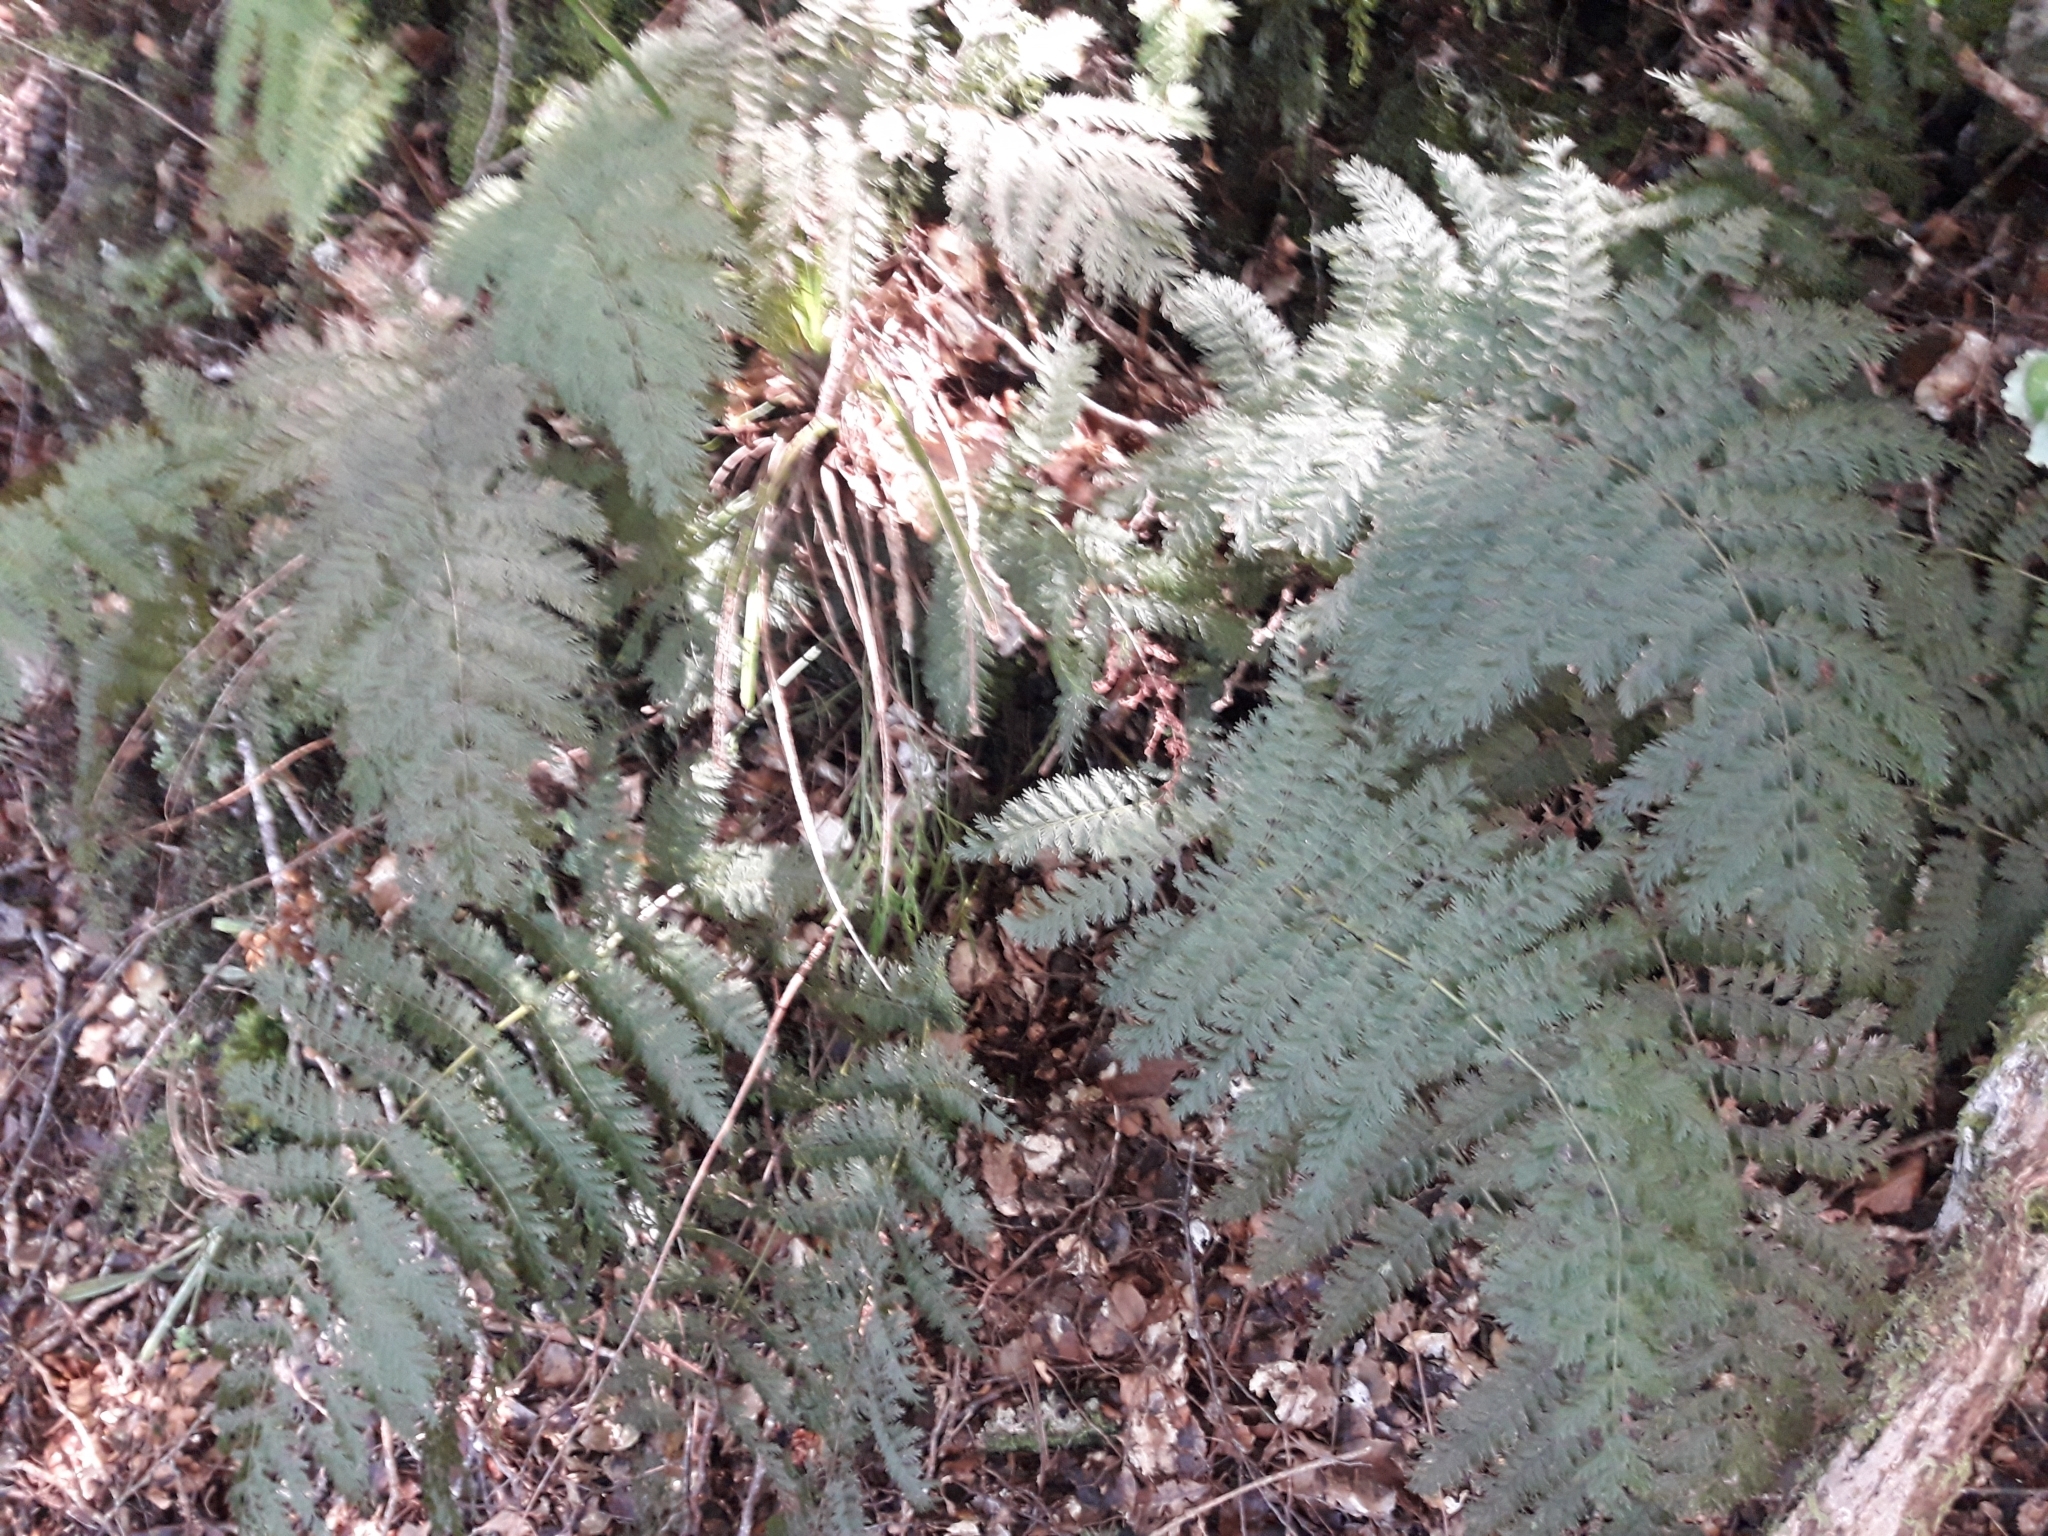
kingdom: Plantae
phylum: Tracheophyta
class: Polypodiopsida
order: Osmundales
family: Osmundaceae
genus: Leptopteris
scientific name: Leptopteris hymenophylloides
